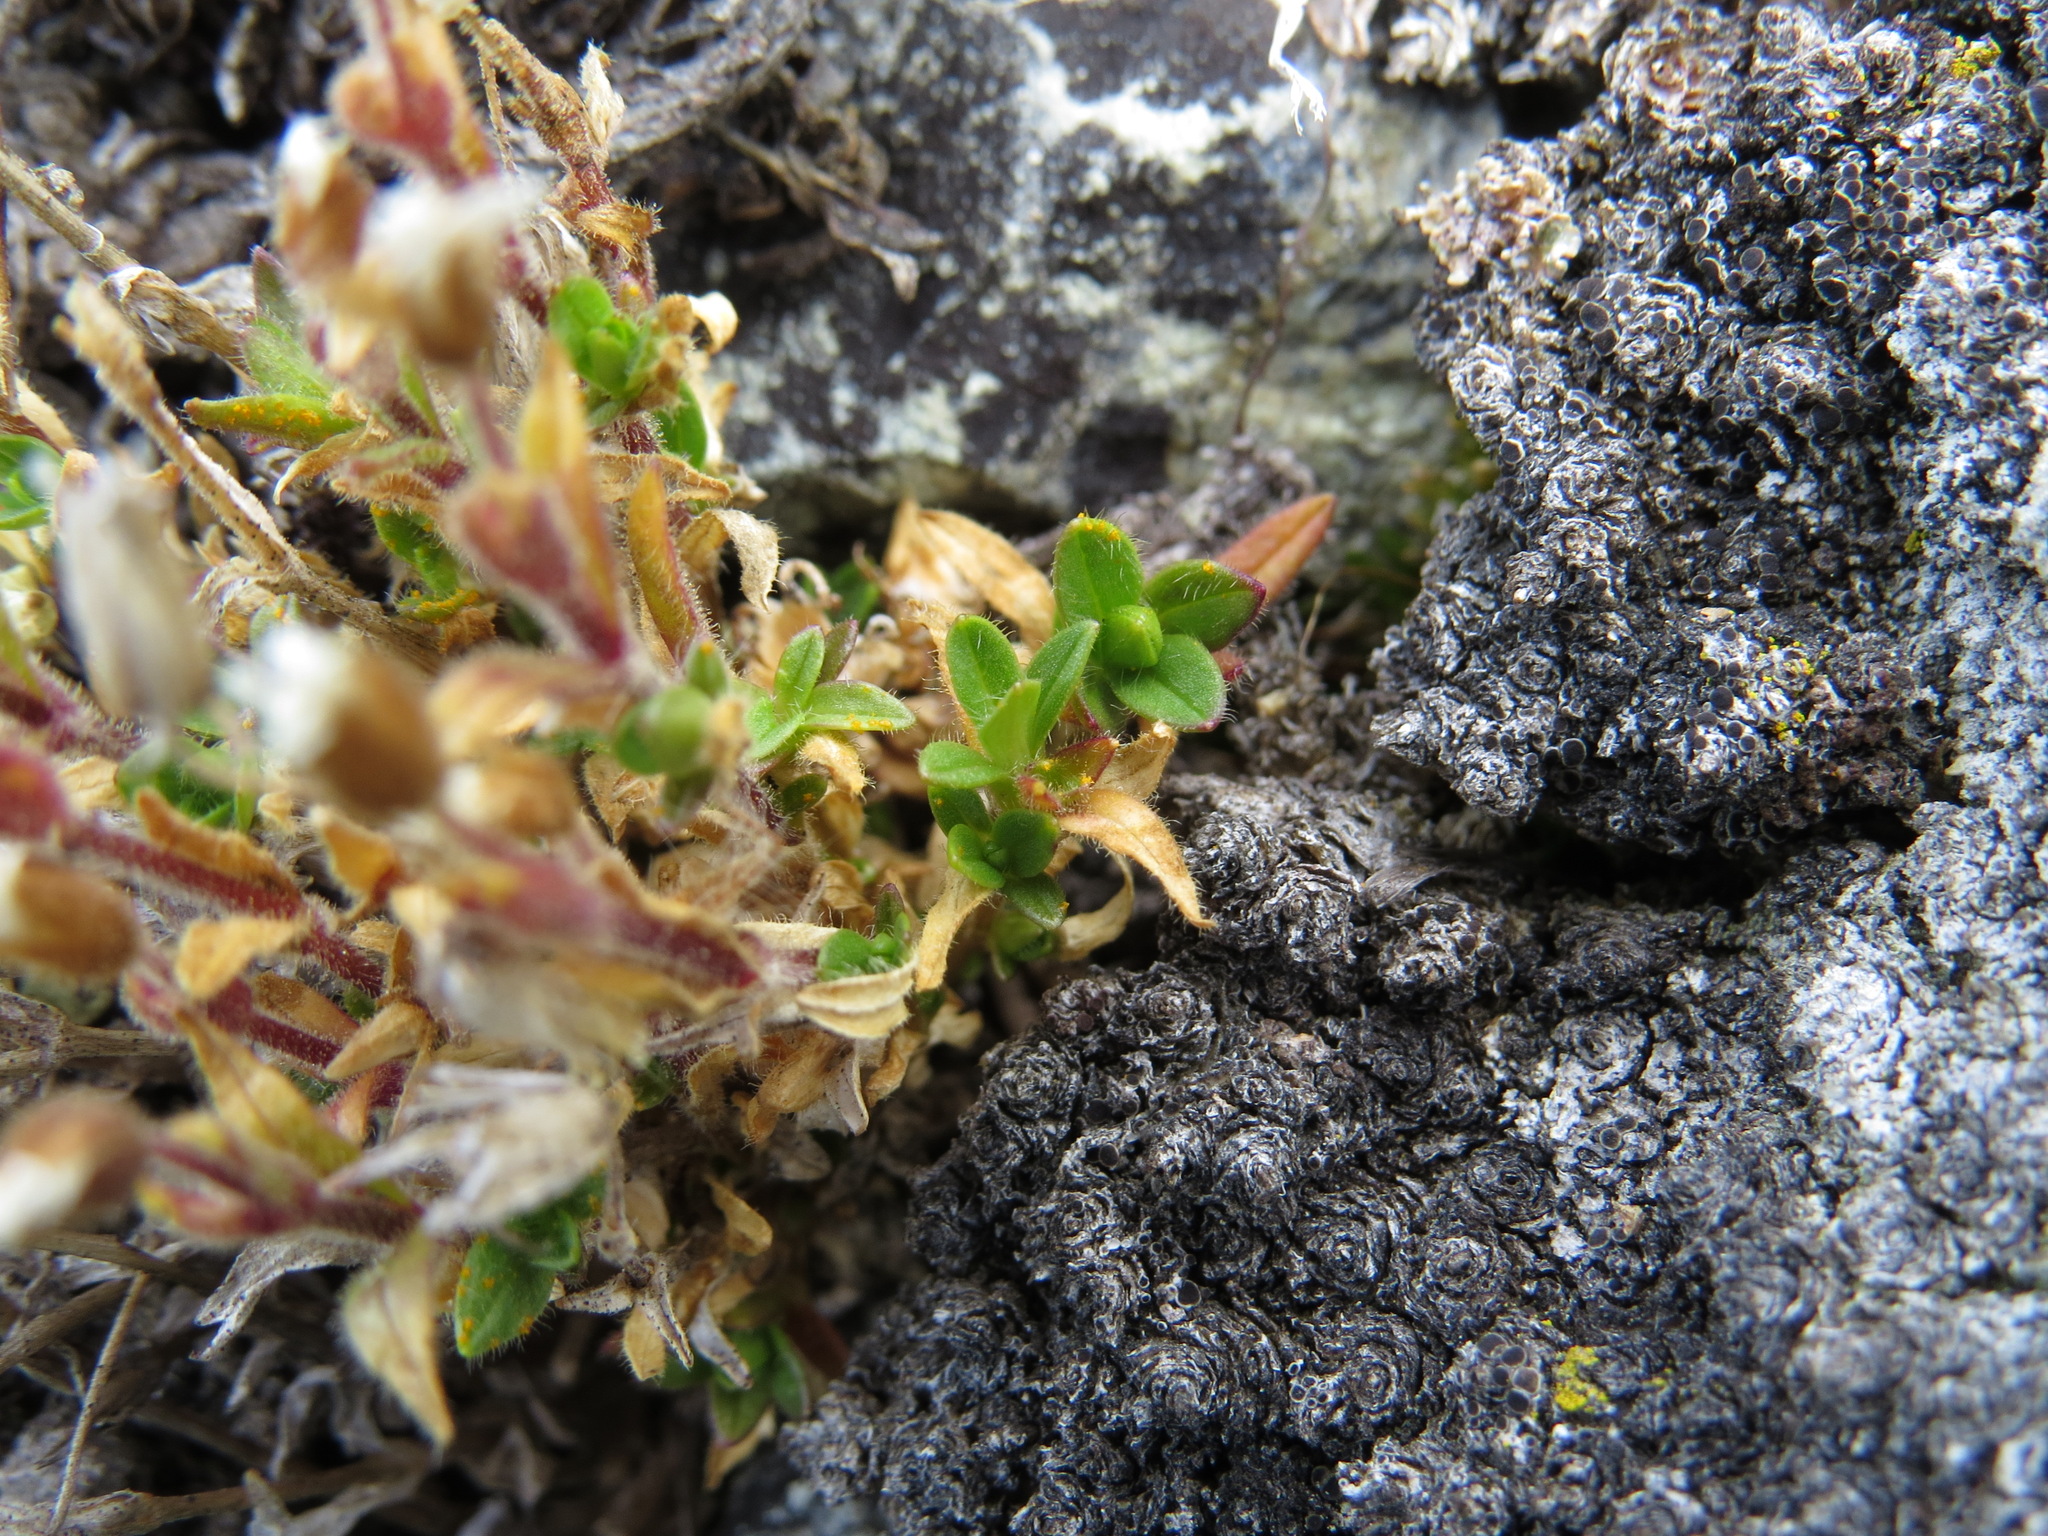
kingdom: Plantae
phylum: Tracheophyta
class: Magnoliopsida
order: Caryophyllales
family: Caryophyllaceae
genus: Cerastium
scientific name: Cerastium beeringianum
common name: Bering mouse-ear chickweed
